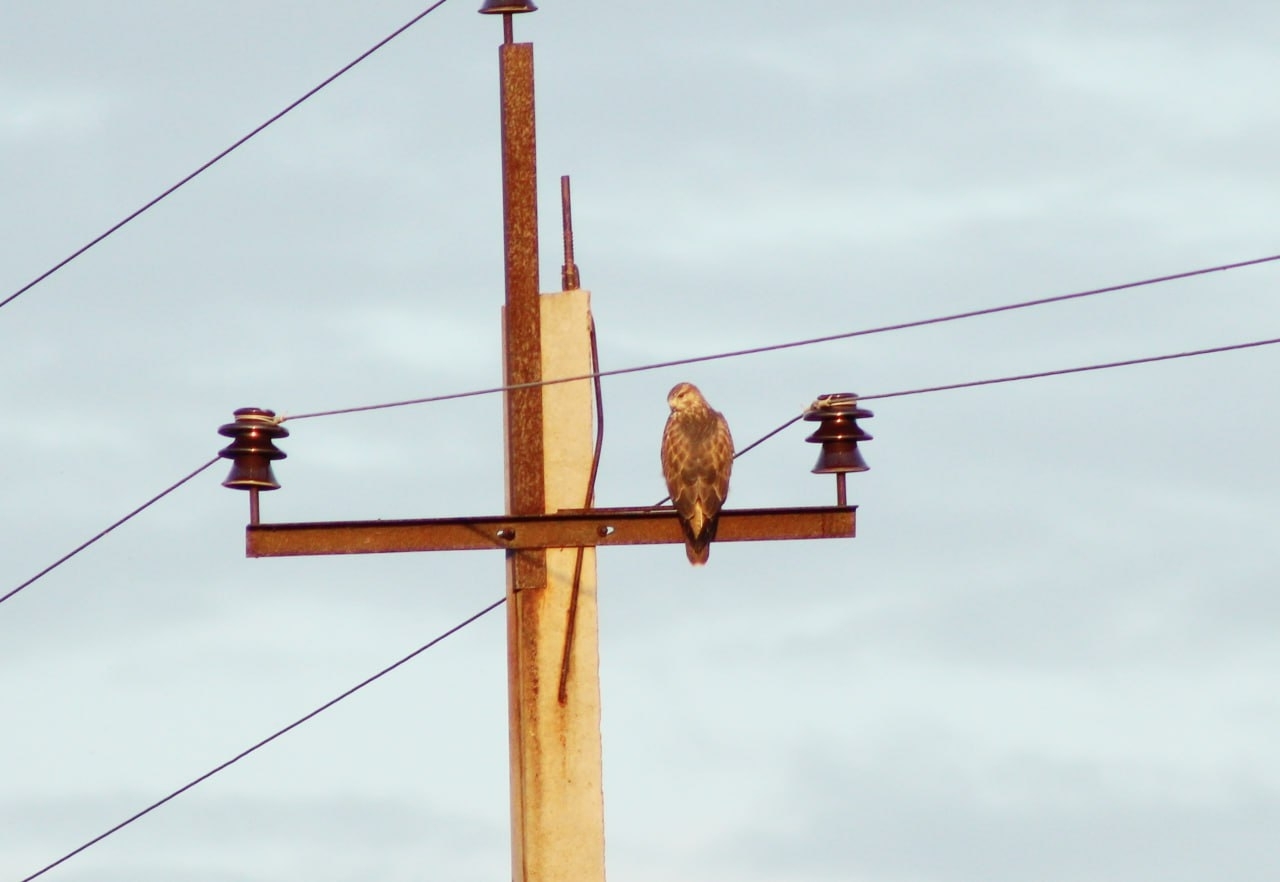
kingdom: Animalia
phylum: Chordata
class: Aves
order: Accipitriformes
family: Accipitridae
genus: Buteo
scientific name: Buteo buteo
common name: Common buzzard
